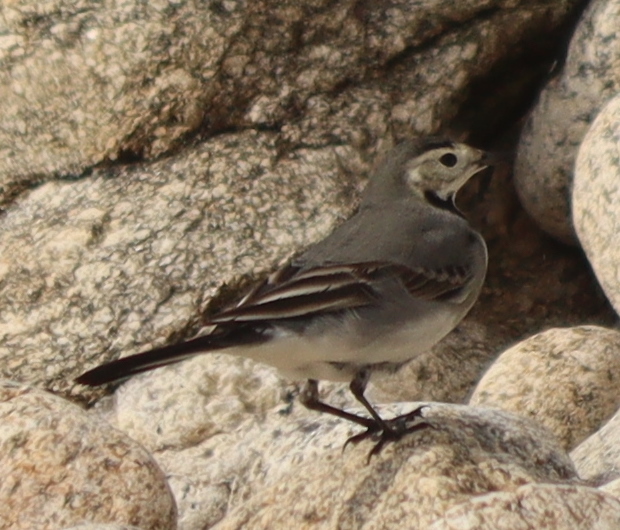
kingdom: Animalia
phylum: Chordata
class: Aves
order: Passeriformes
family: Motacillidae
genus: Motacilla
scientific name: Motacilla alba
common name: White wagtail
